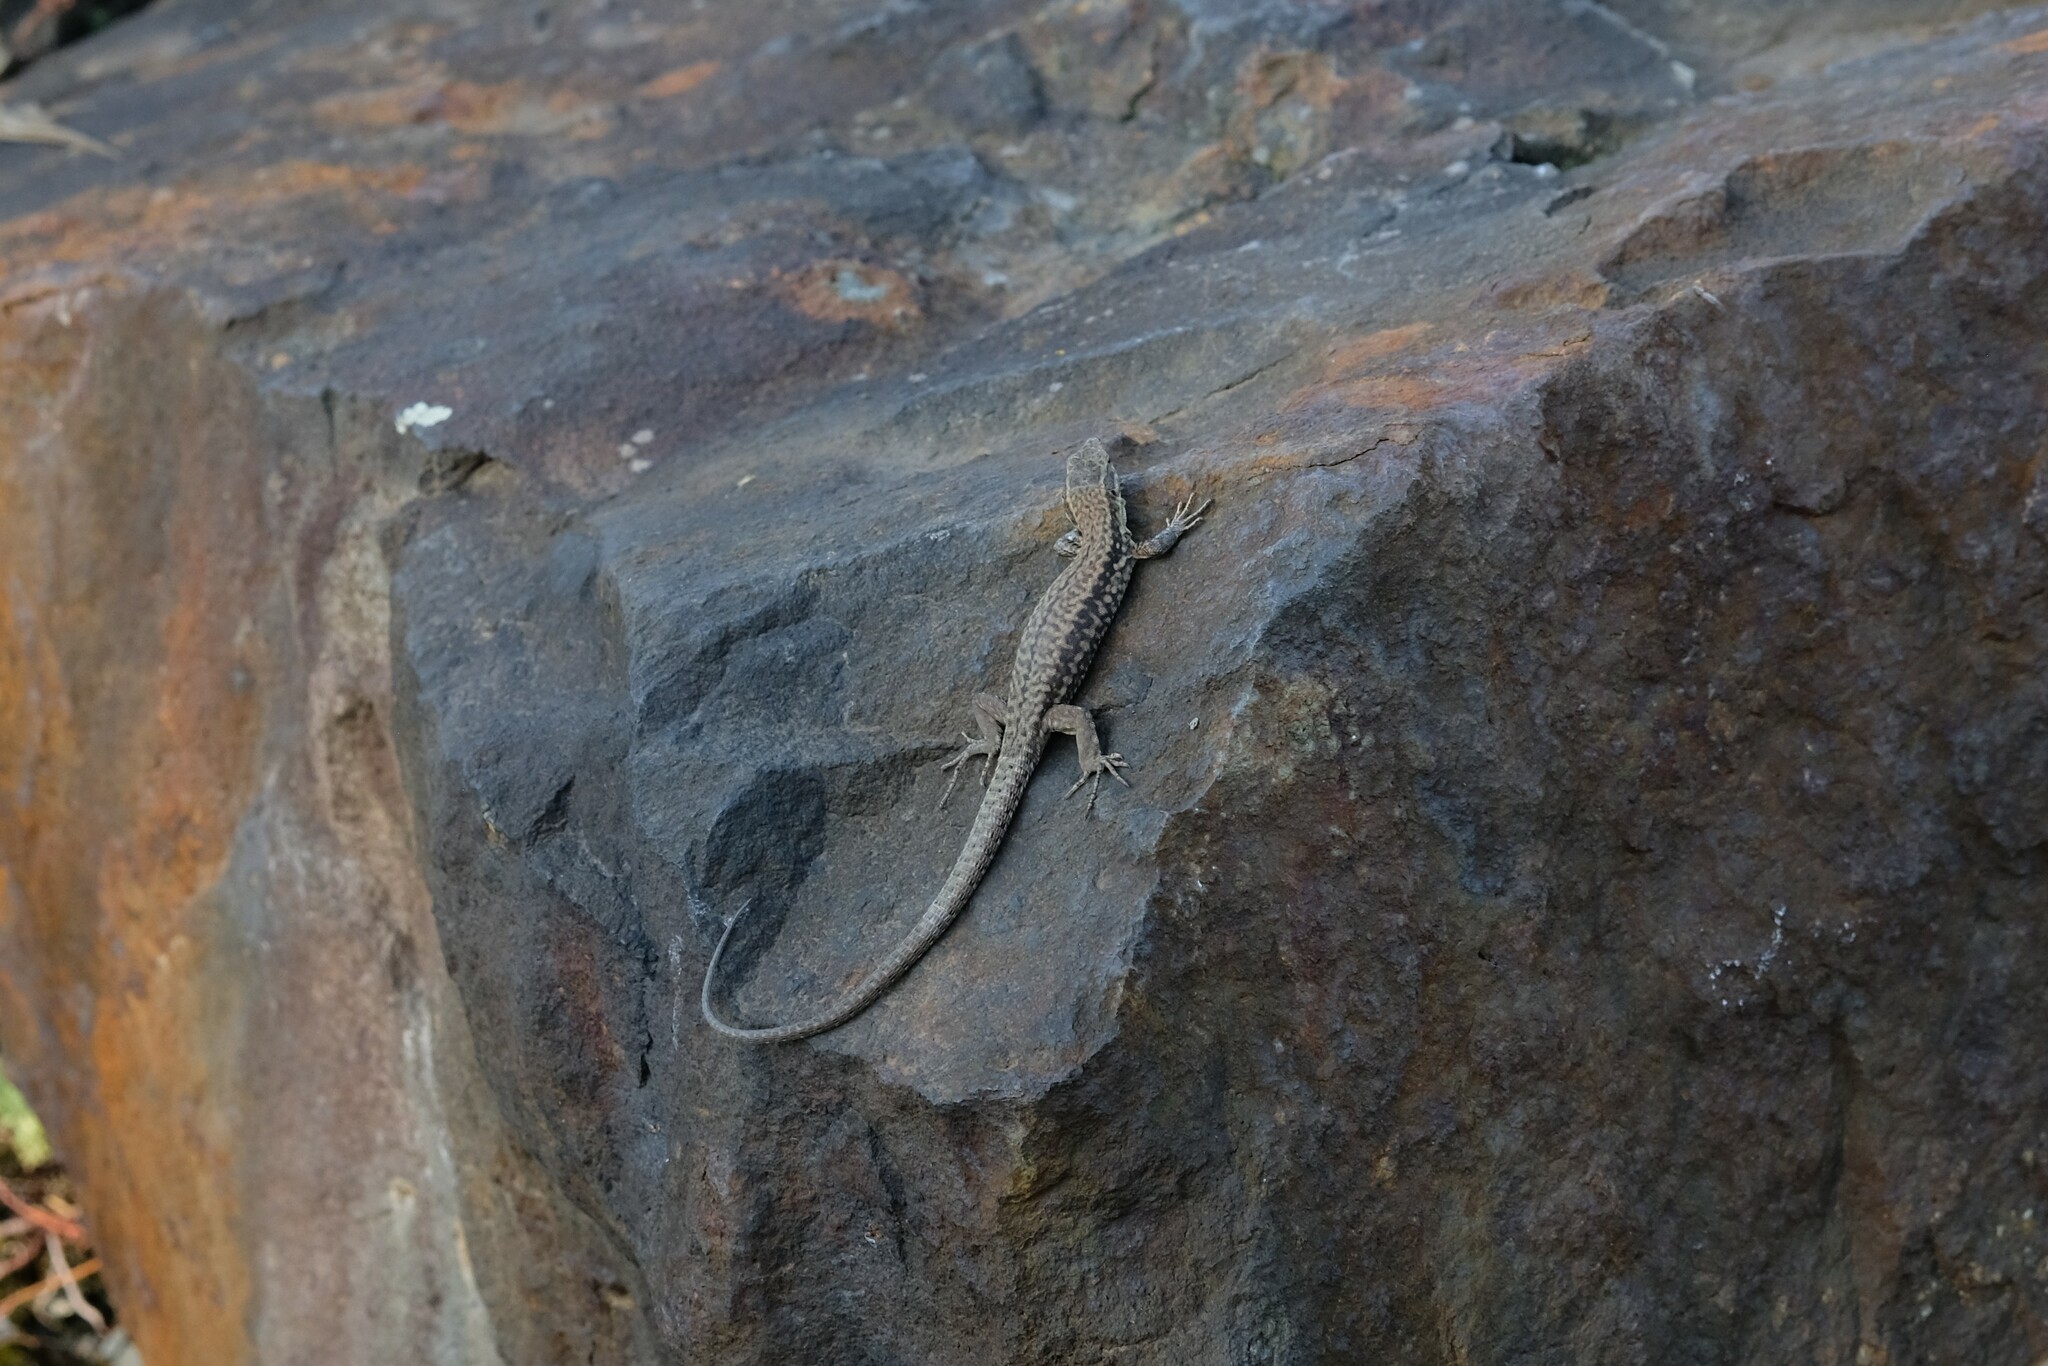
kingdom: Animalia
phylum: Chordata
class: Squamata
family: Lacertidae
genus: Podarcis
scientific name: Podarcis muralis
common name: Common wall lizard
